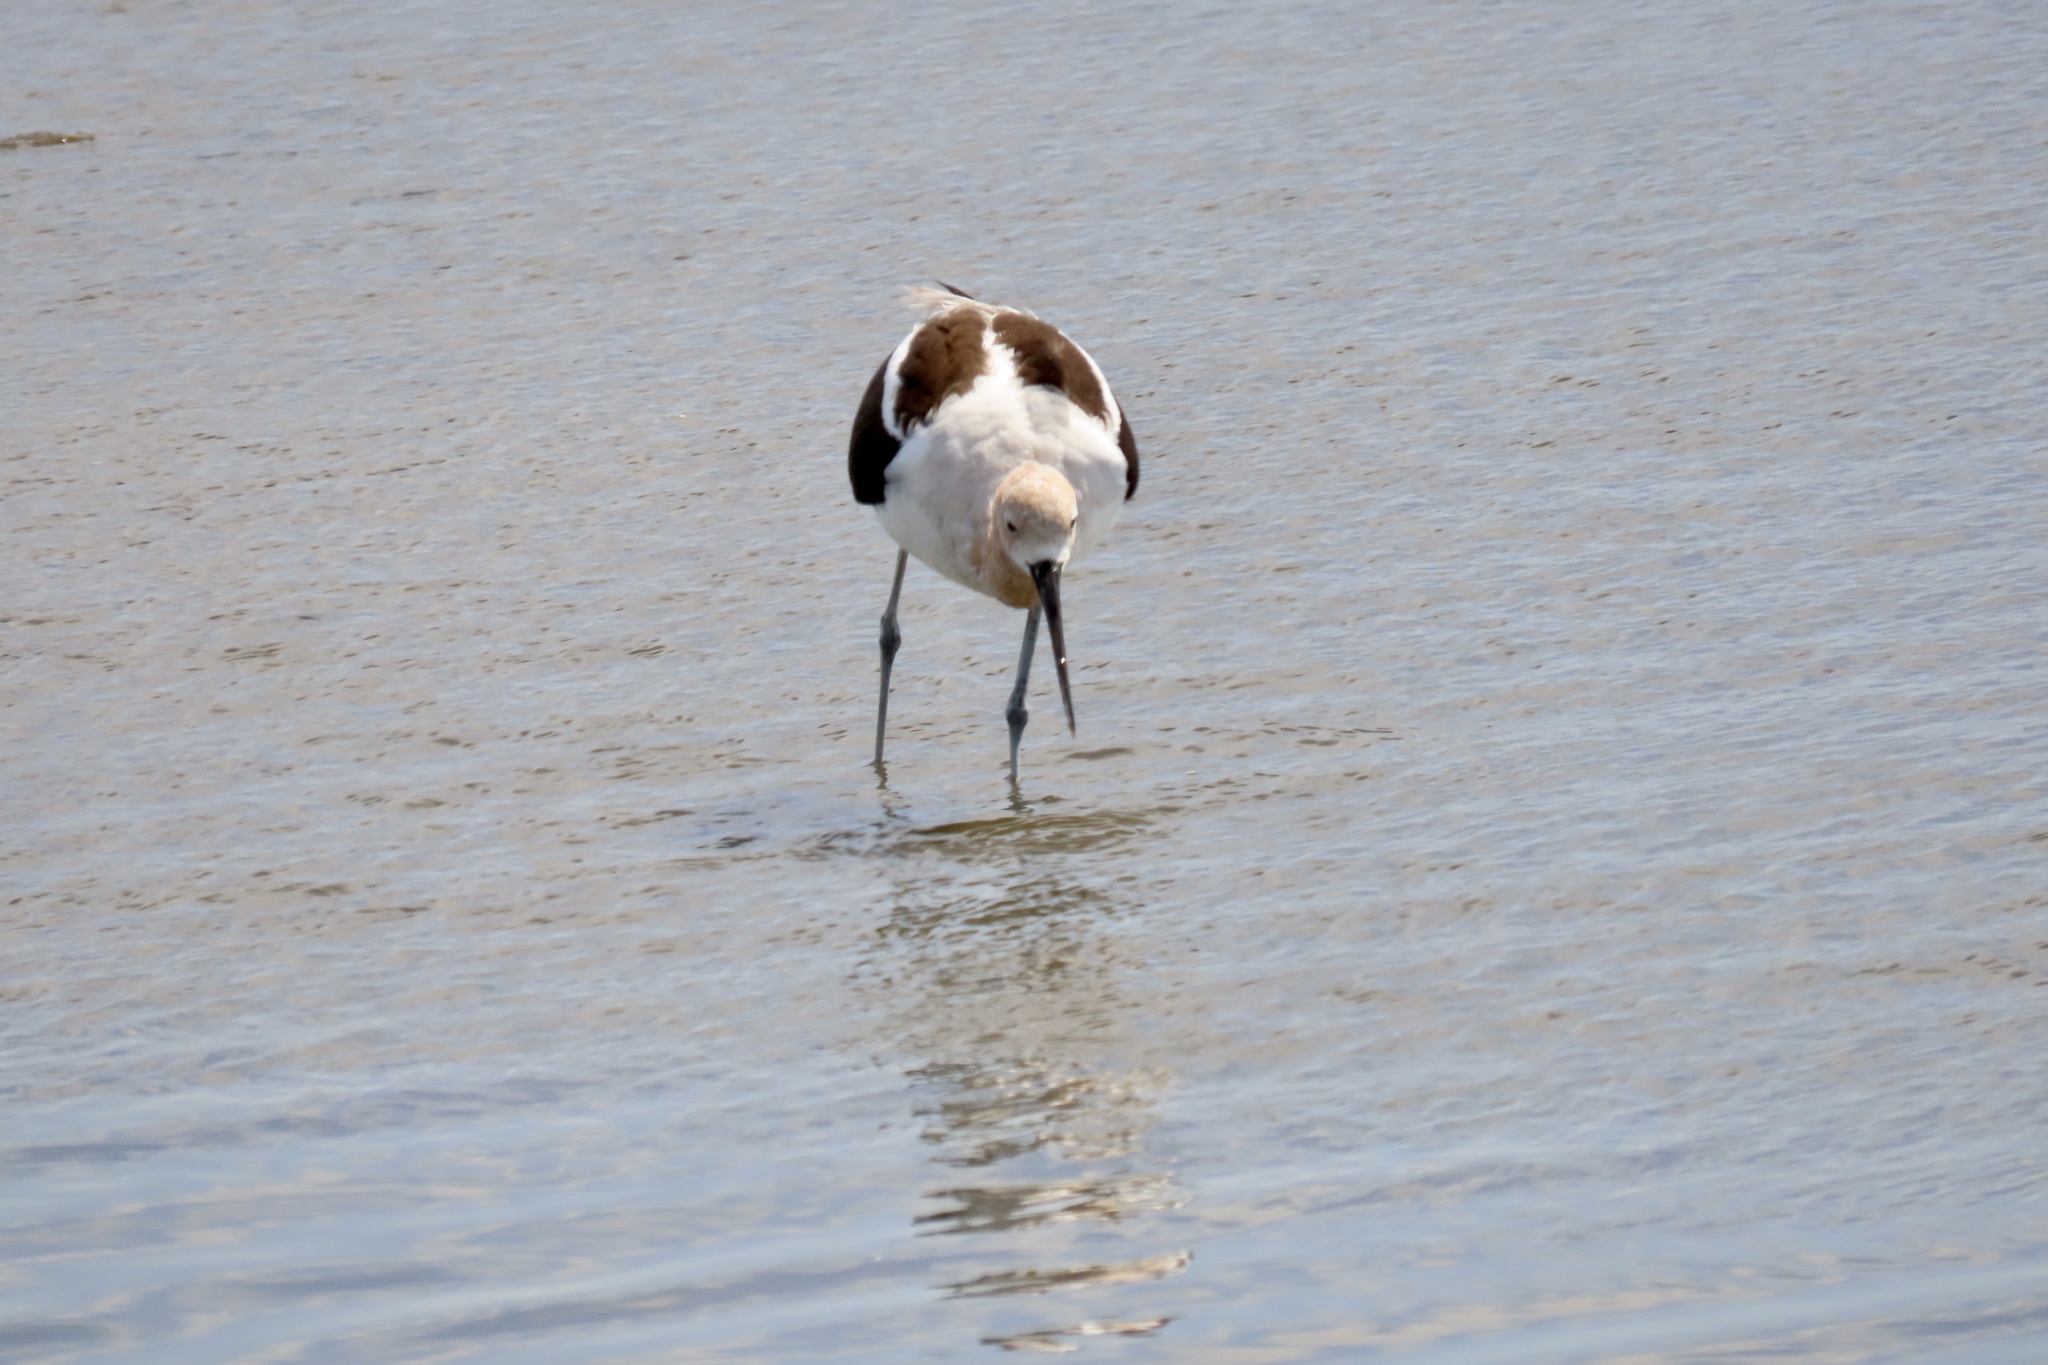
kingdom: Animalia
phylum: Chordata
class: Aves
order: Charadriiformes
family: Recurvirostridae
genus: Recurvirostra
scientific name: Recurvirostra americana
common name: American avocet
